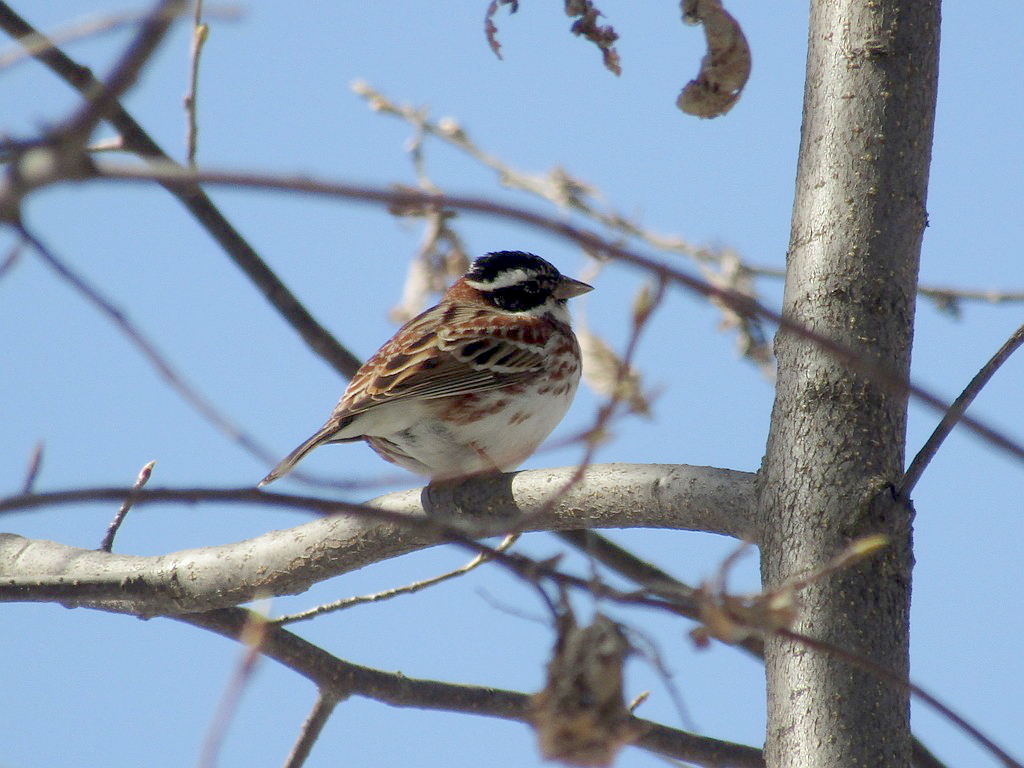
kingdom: Animalia
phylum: Chordata
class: Aves
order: Passeriformes
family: Emberizidae
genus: Emberiza
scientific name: Emberiza rustica
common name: Rustic bunting
